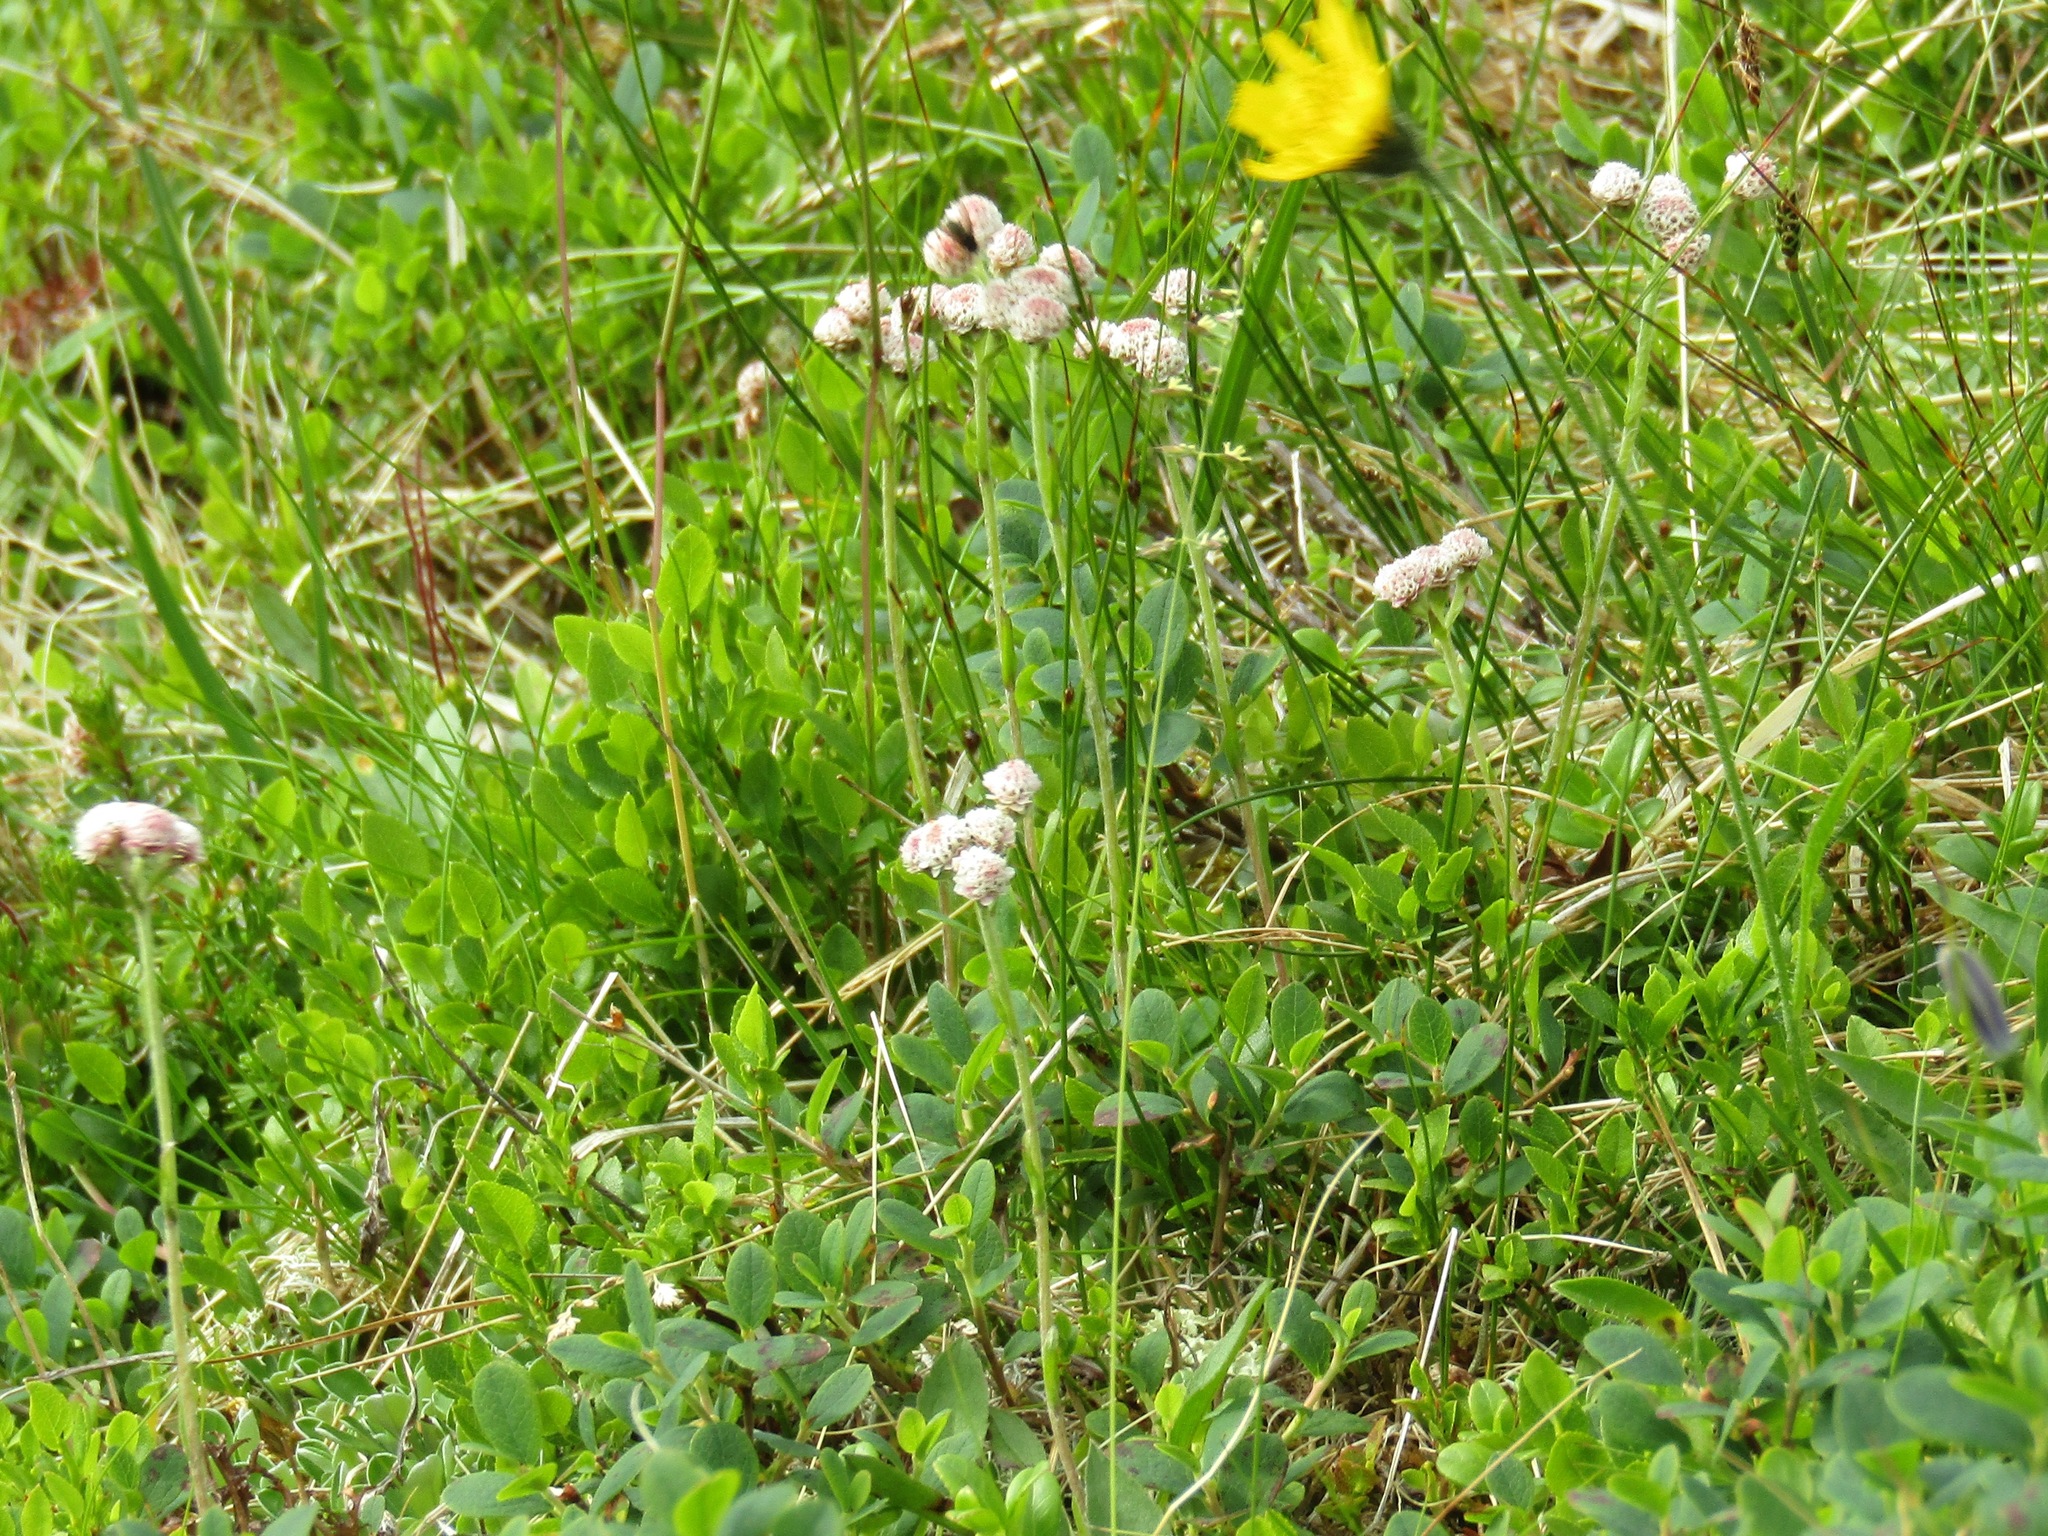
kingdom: Plantae
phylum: Tracheophyta
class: Magnoliopsida
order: Asterales
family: Asteraceae
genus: Antennaria
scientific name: Antennaria dioica
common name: Mountain everlasting
